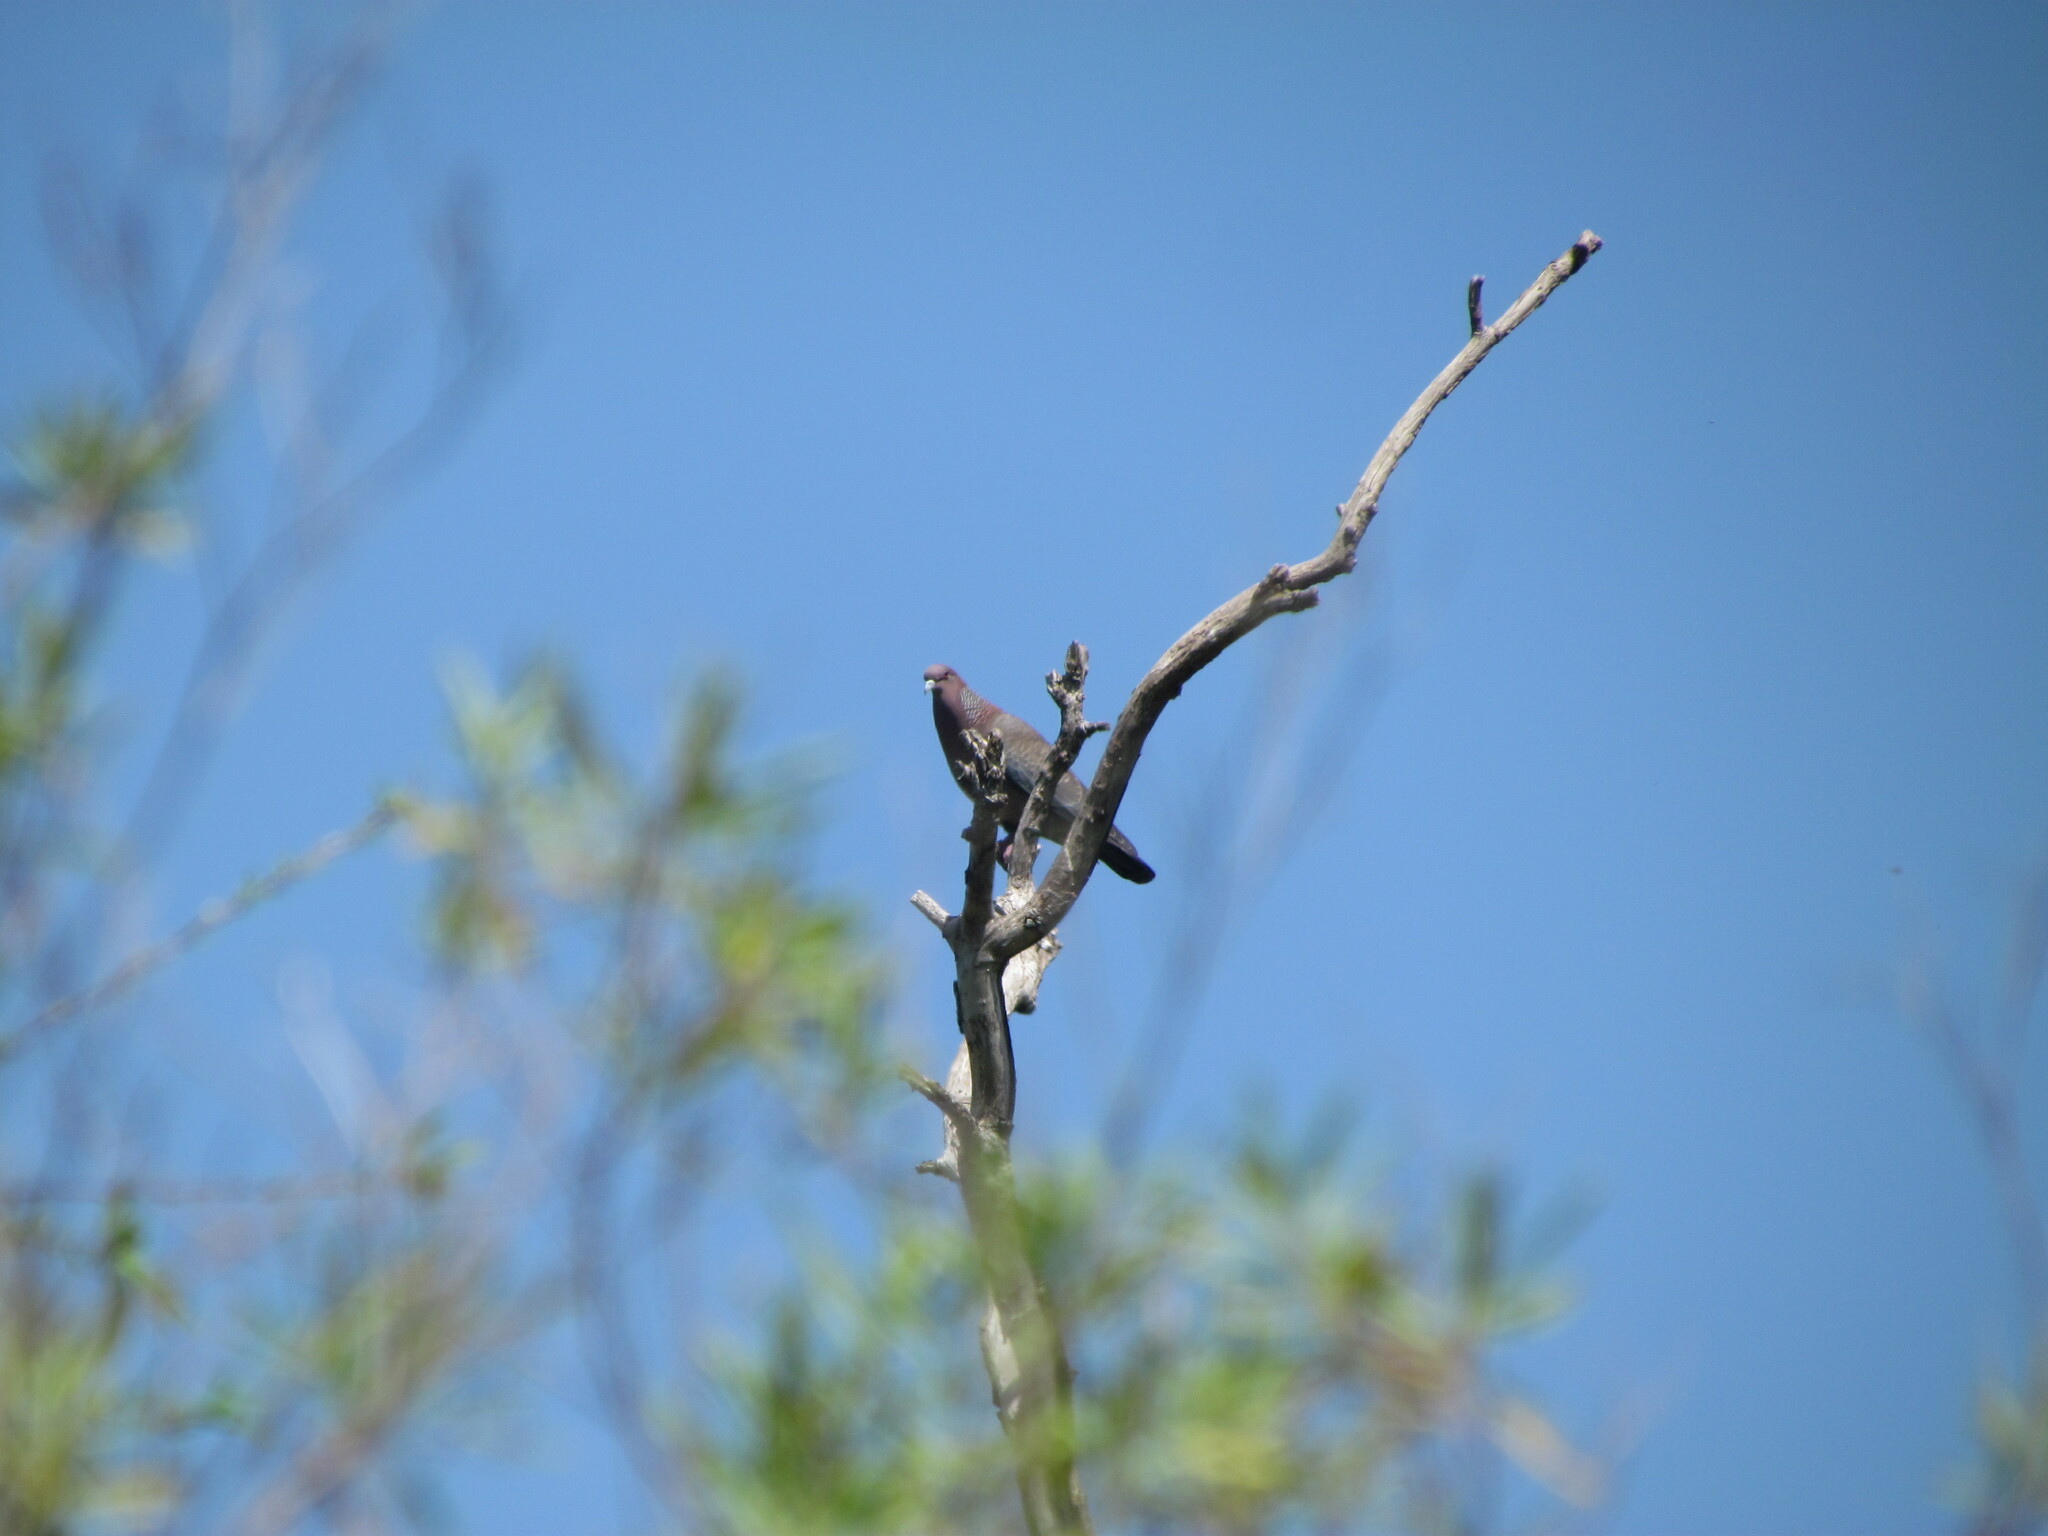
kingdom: Animalia
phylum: Chordata
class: Aves
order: Columbiformes
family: Columbidae
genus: Patagioenas
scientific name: Patagioenas picazuro
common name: Picazuro pigeon
